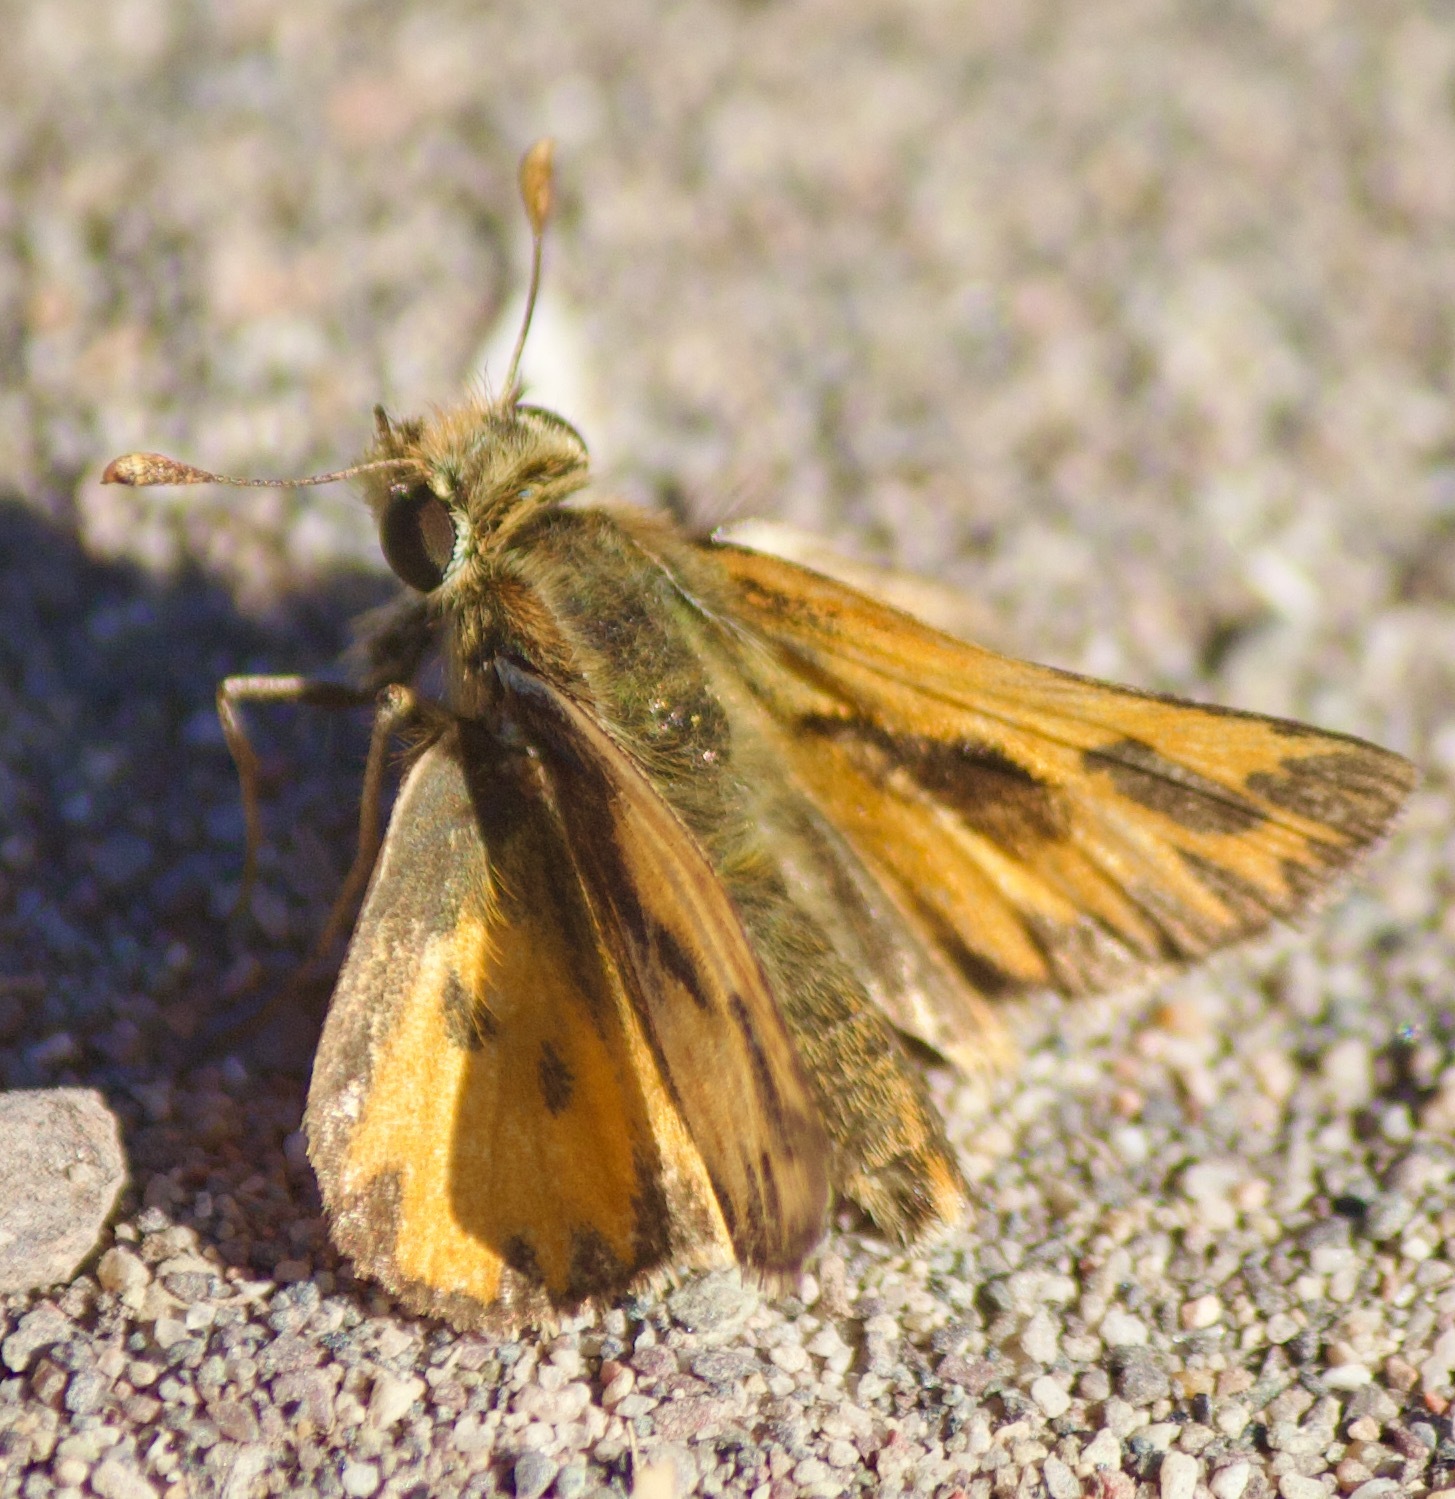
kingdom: Animalia
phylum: Arthropoda
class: Insecta
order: Lepidoptera
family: Hesperiidae
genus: Hylephila
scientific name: Hylephila fasciolata
